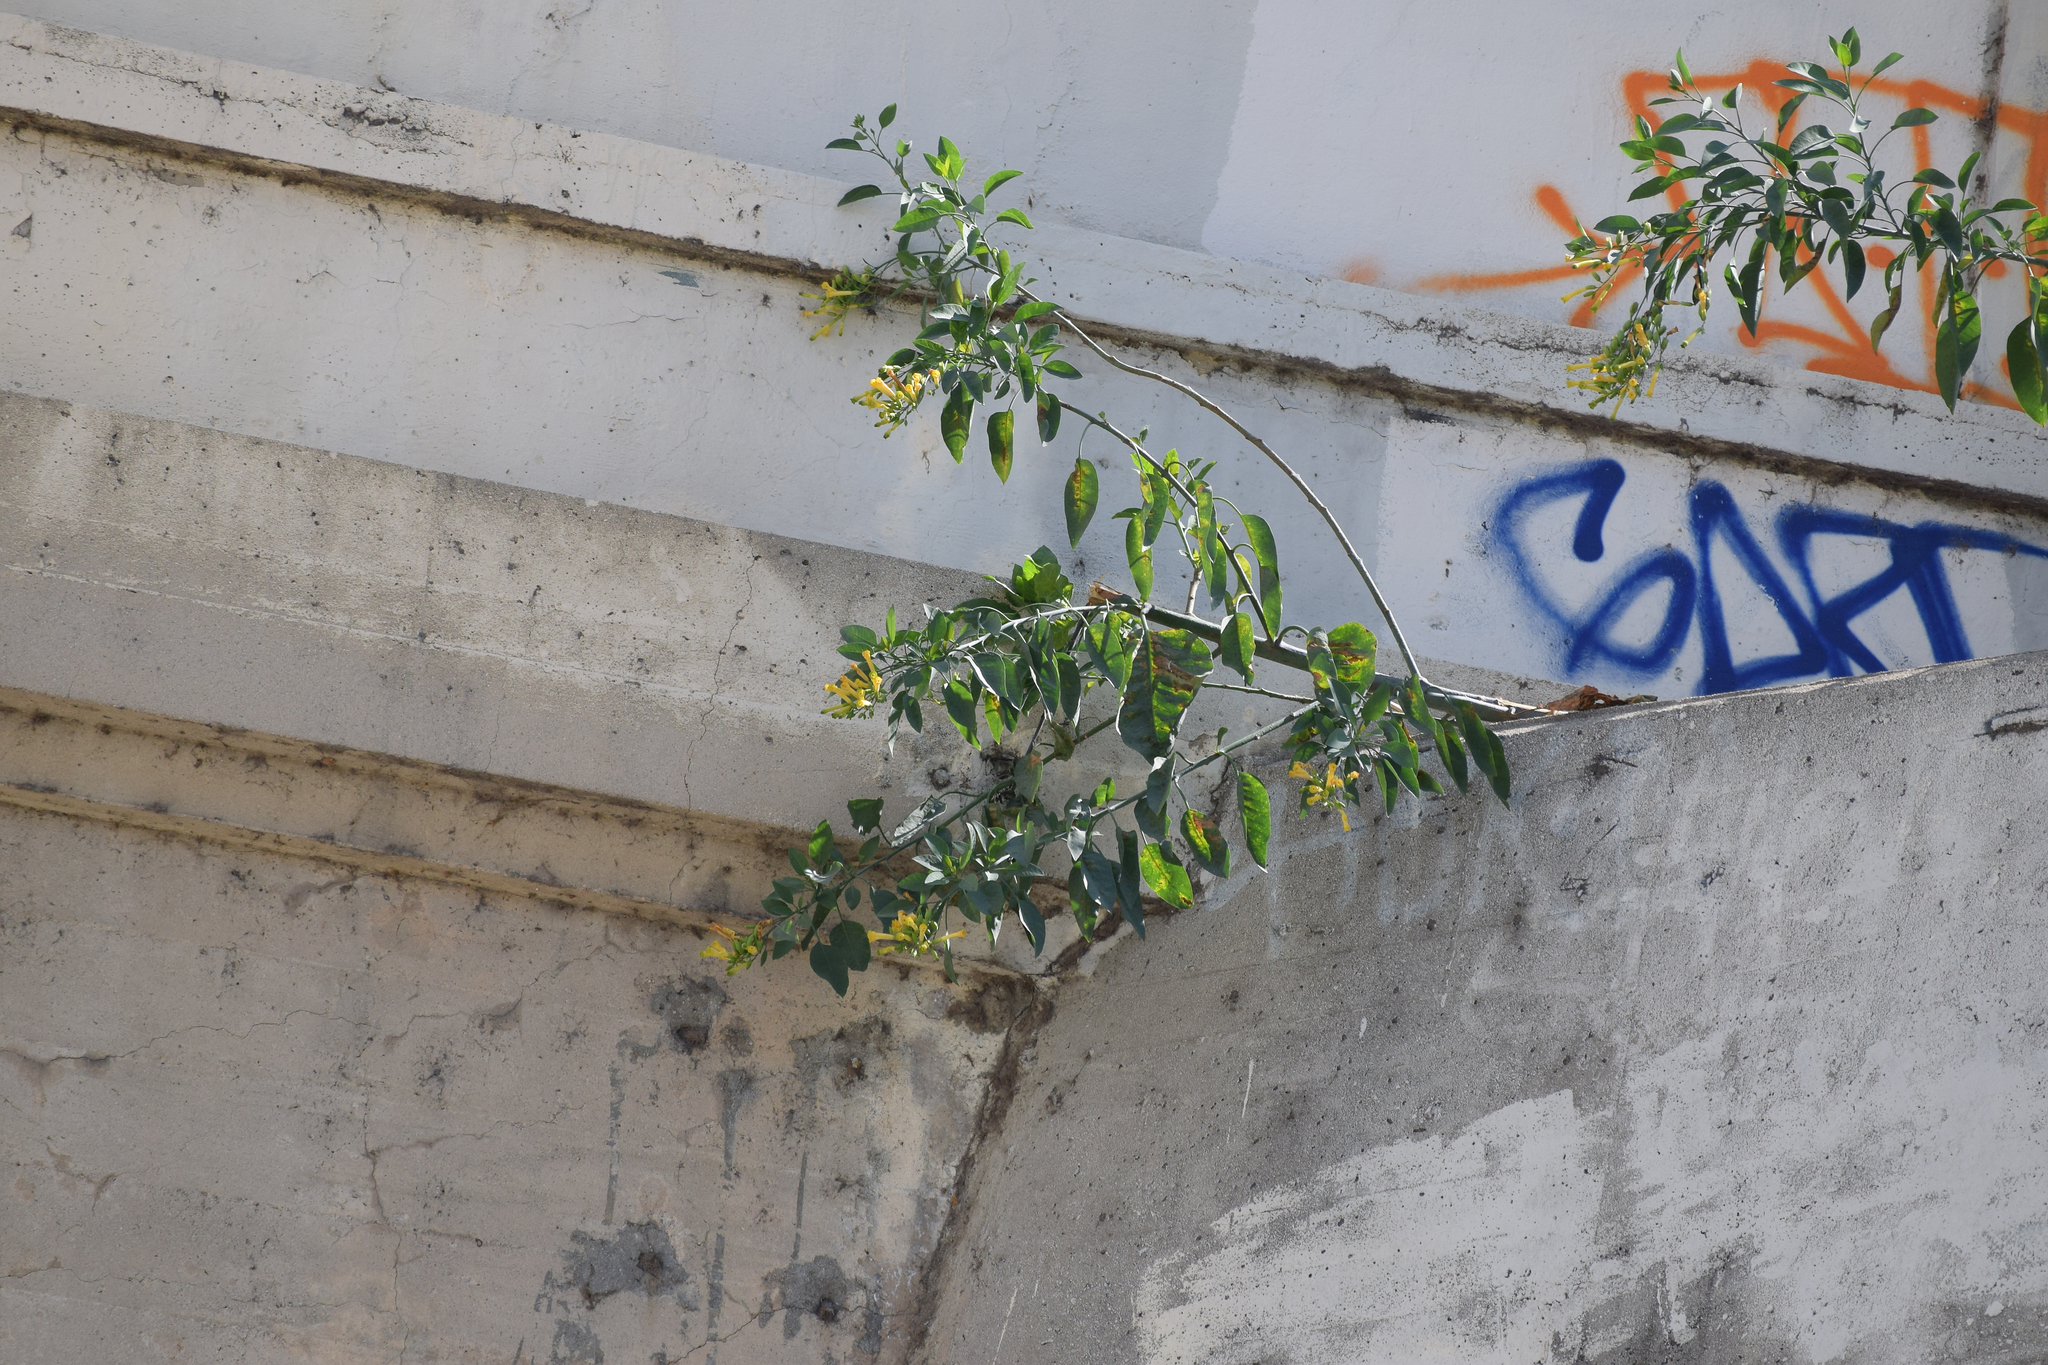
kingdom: Plantae
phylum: Tracheophyta
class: Magnoliopsida
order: Solanales
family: Solanaceae
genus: Nicotiana
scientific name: Nicotiana glauca
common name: Tree tobacco
